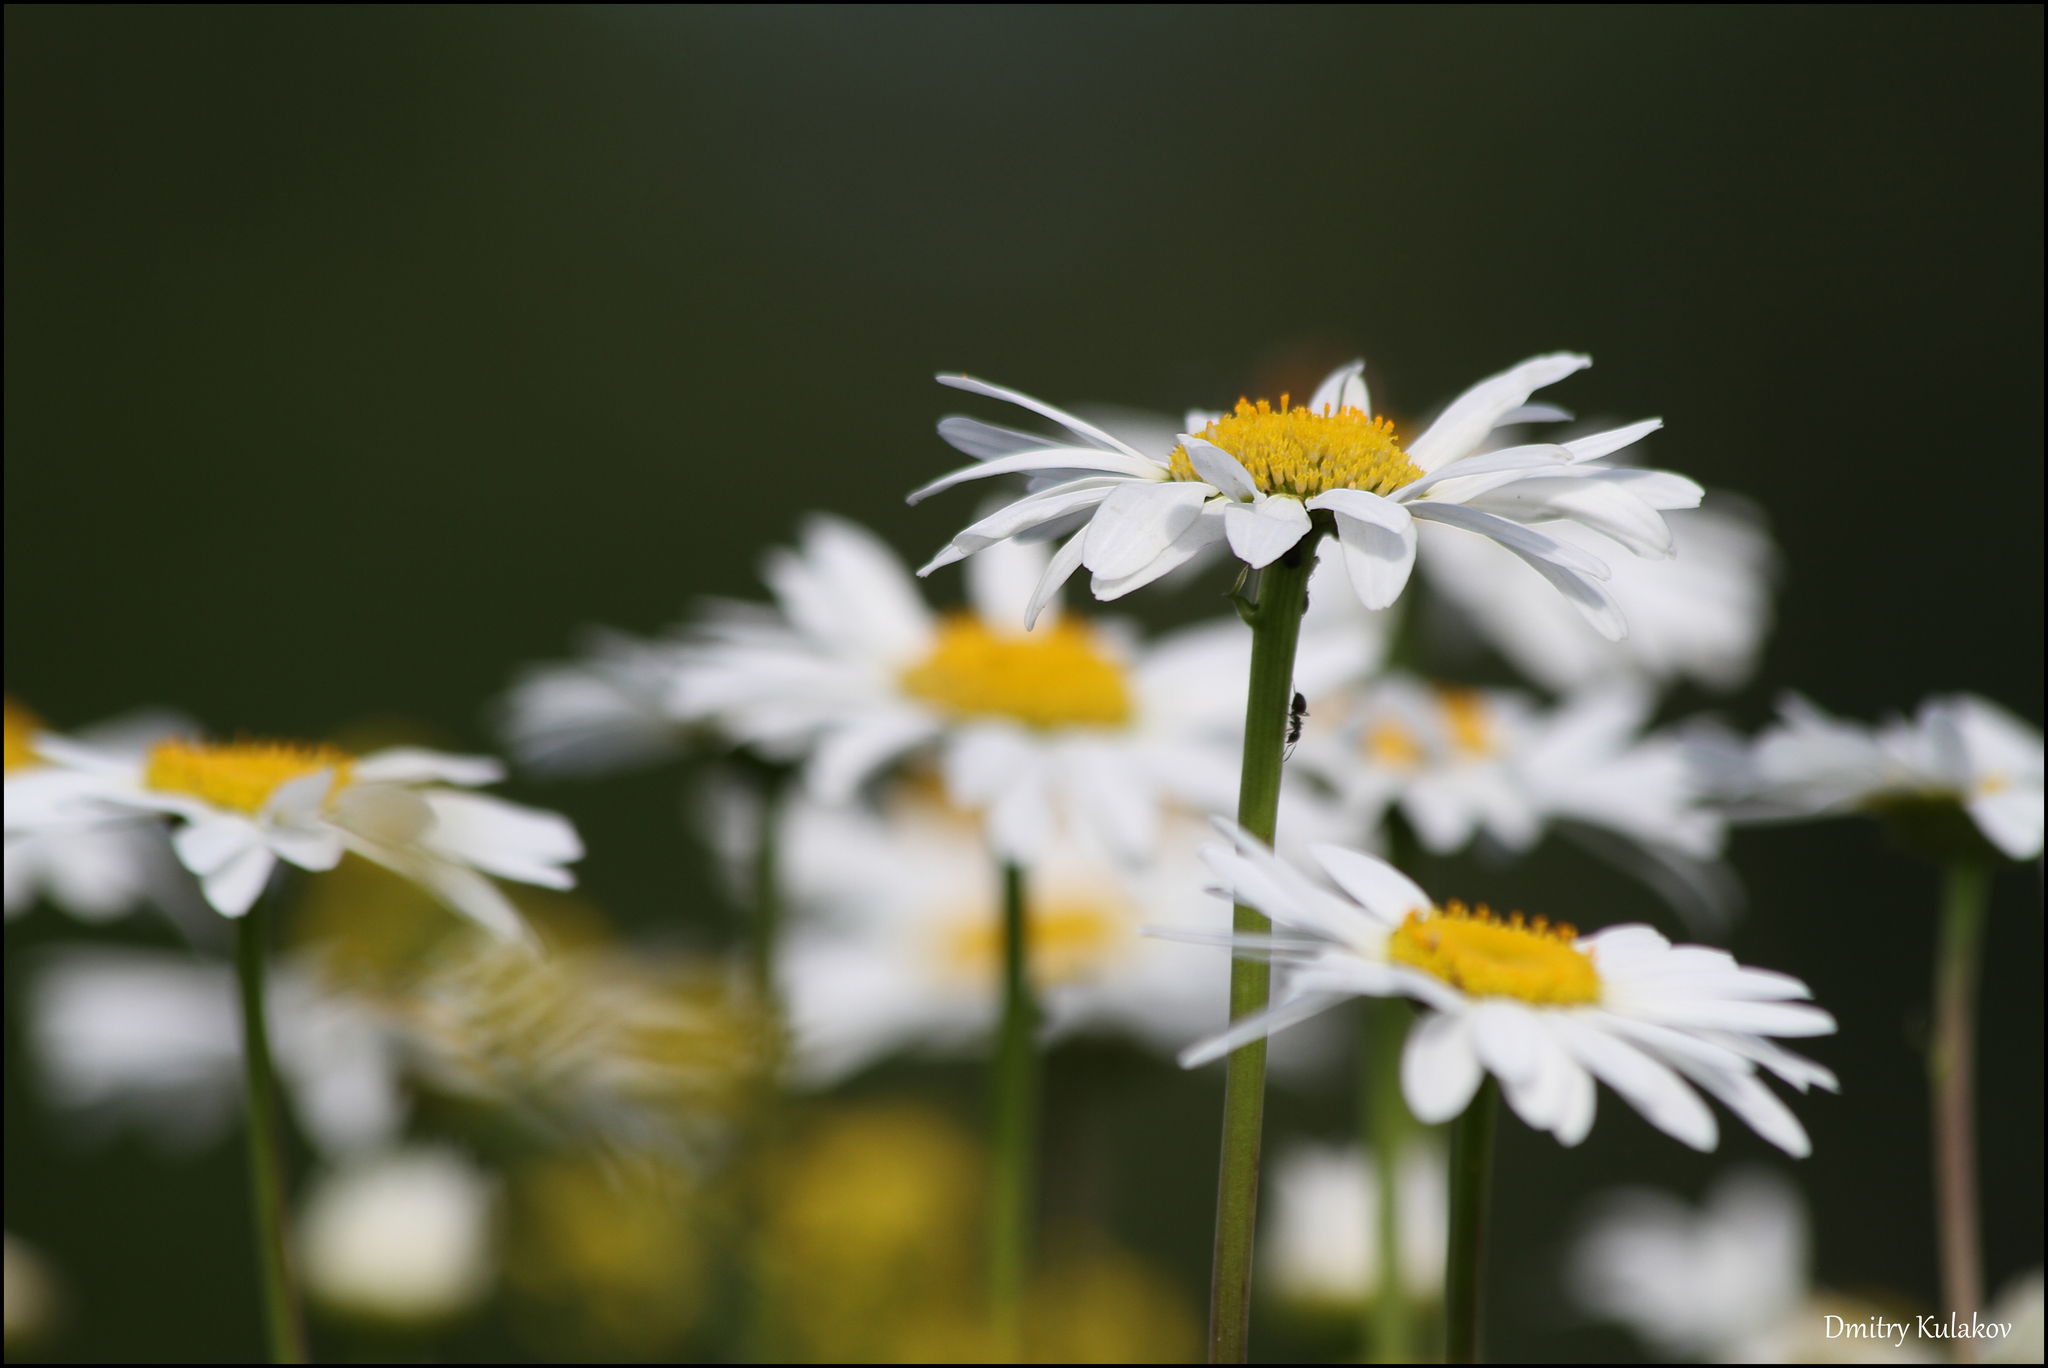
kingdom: Plantae
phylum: Tracheophyta
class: Magnoliopsida
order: Asterales
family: Asteraceae
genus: Leucanthemum
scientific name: Leucanthemum vulgare
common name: Oxeye daisy
